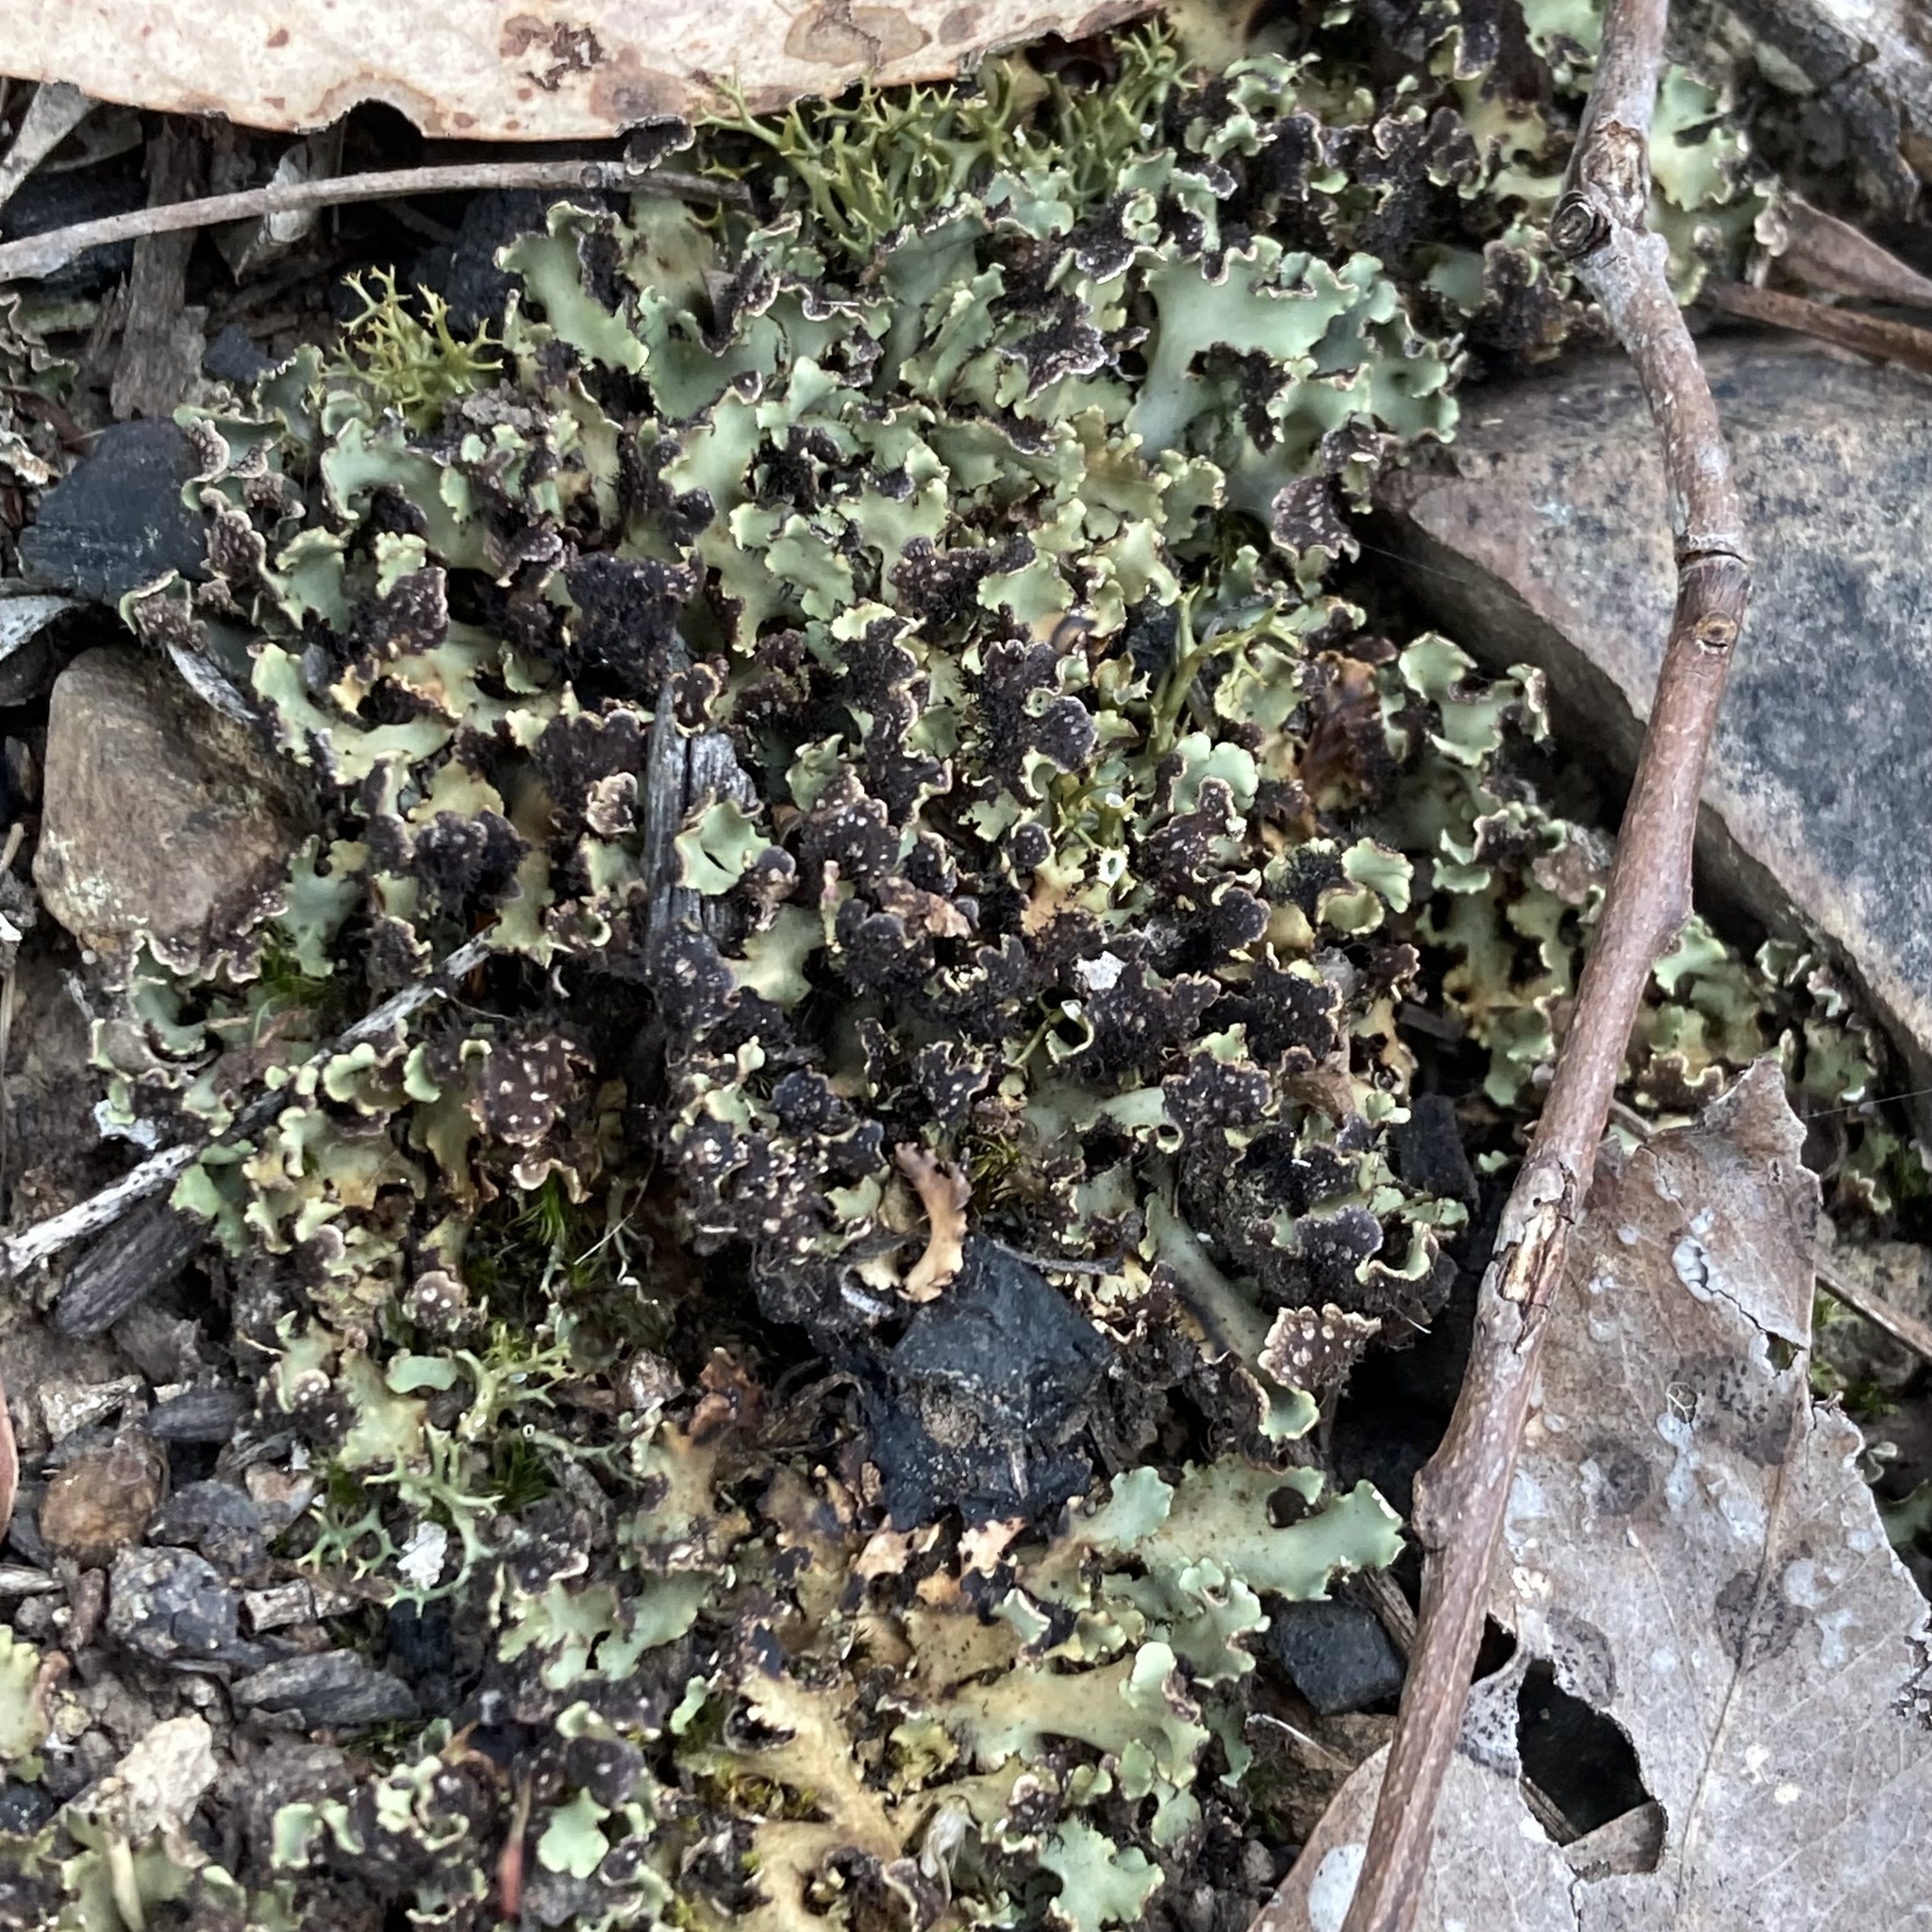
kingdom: Fungi
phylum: Ascomycota
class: Lecanoromycetes
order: Lecanorales
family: Cladoniaceae
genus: Cladia
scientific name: Cladia muelleri
